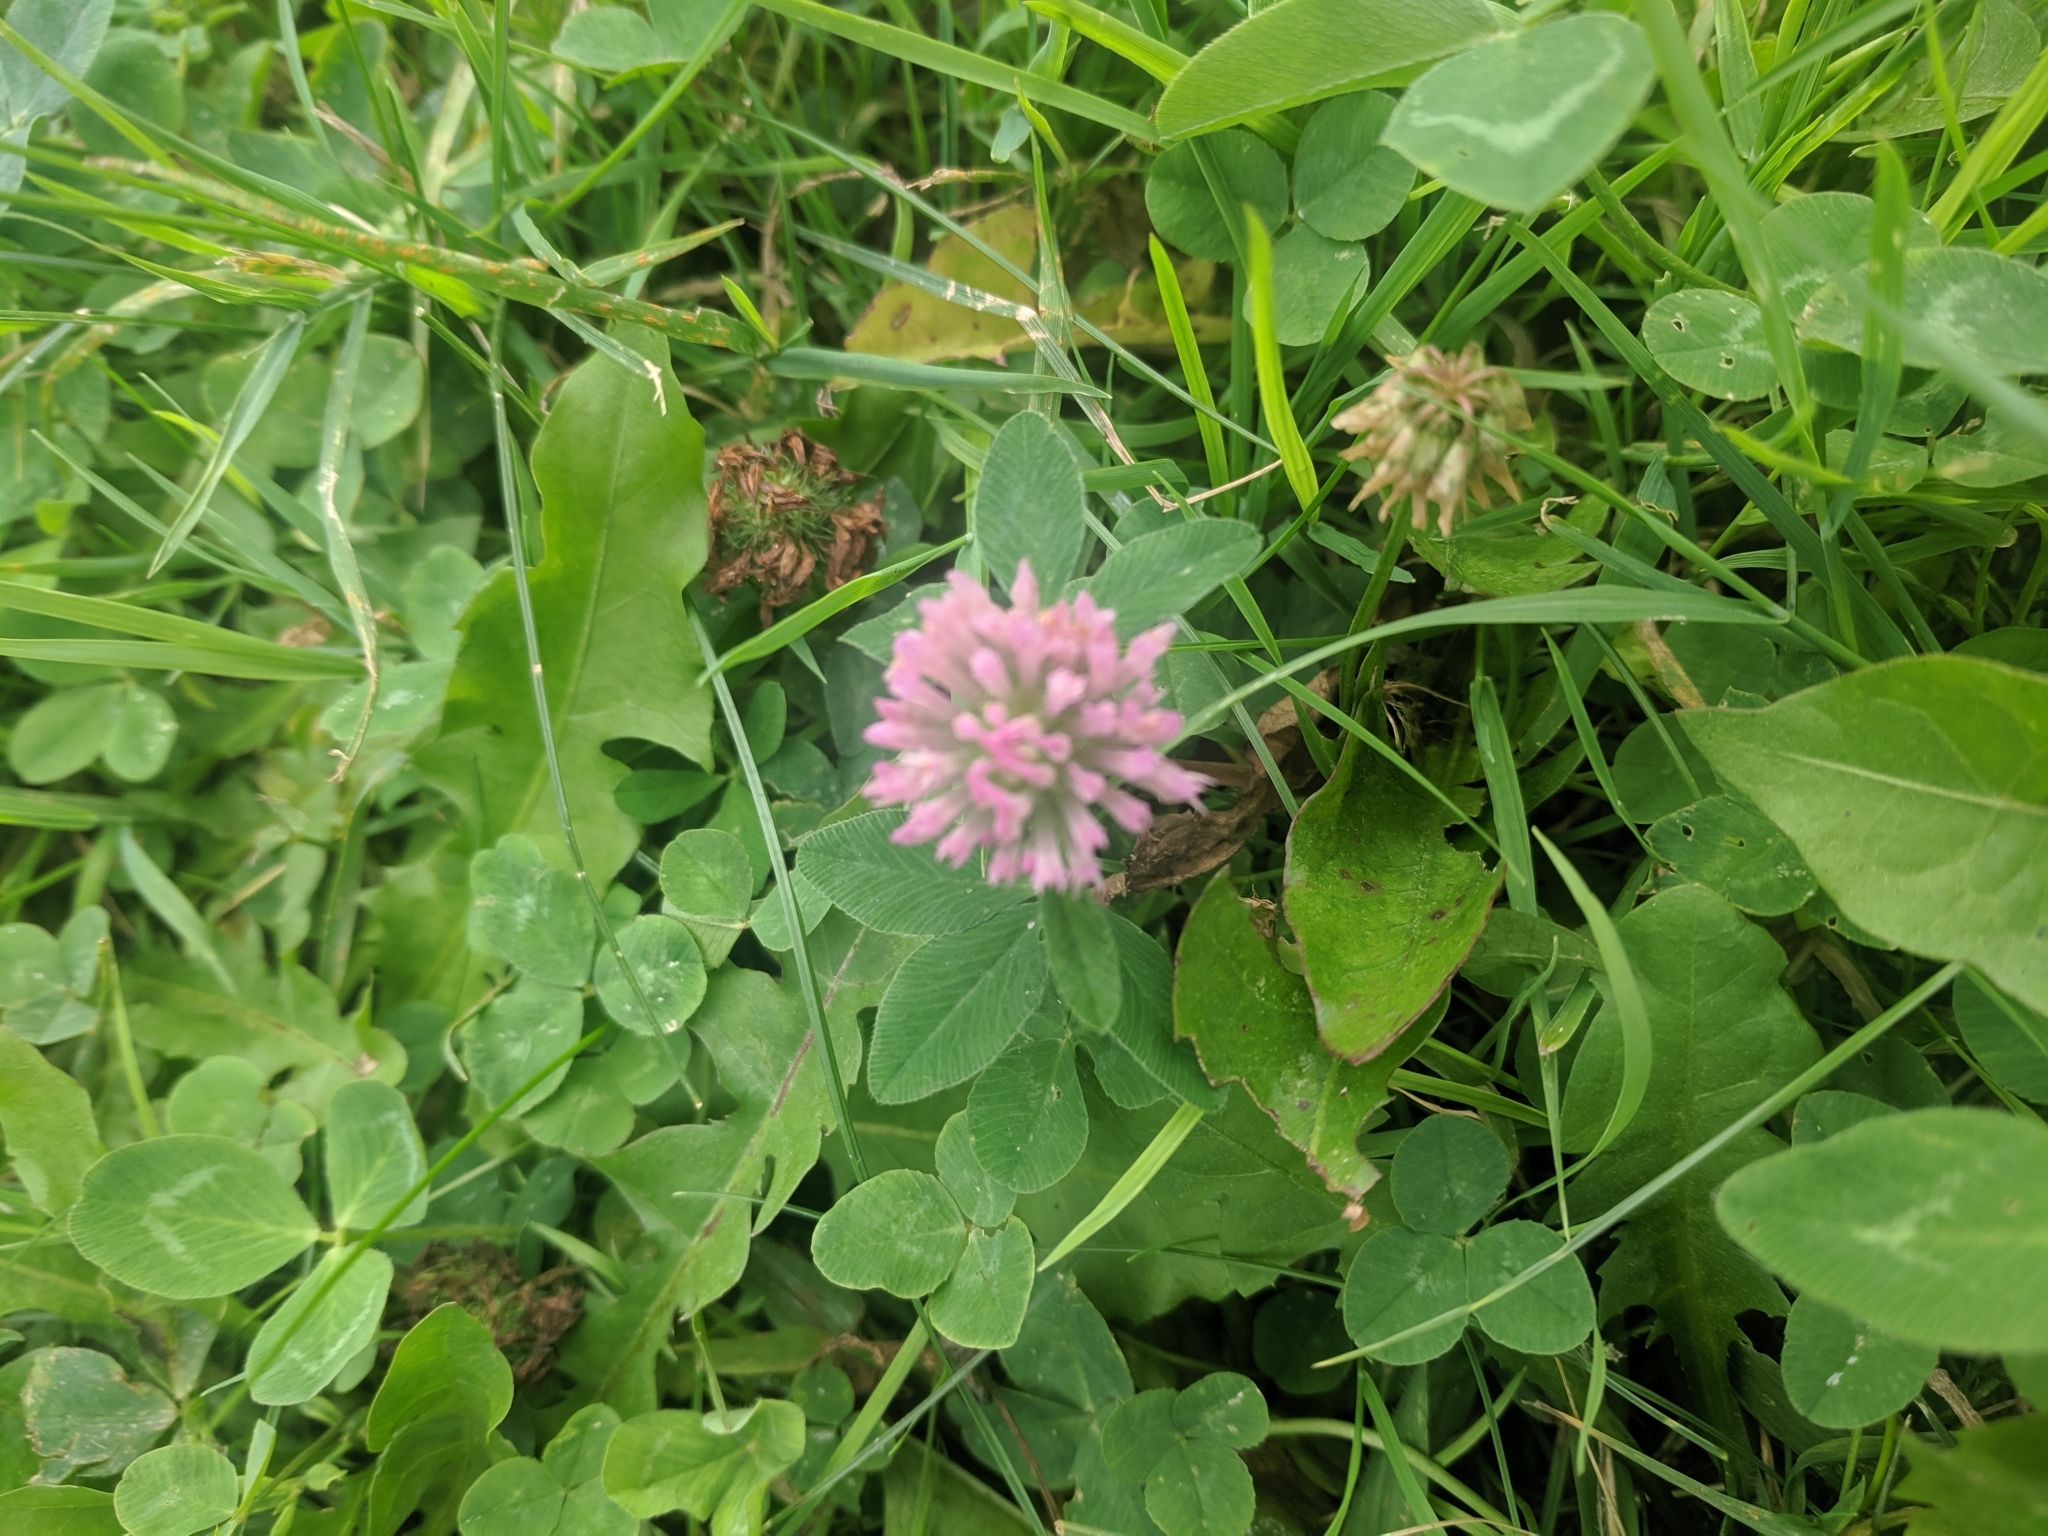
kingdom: Plantae
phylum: Tracheophyta
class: Magnoliopsida
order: Fabales
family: Fabaceae
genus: Trifolium
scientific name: Trifolium pratense
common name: Red clover
